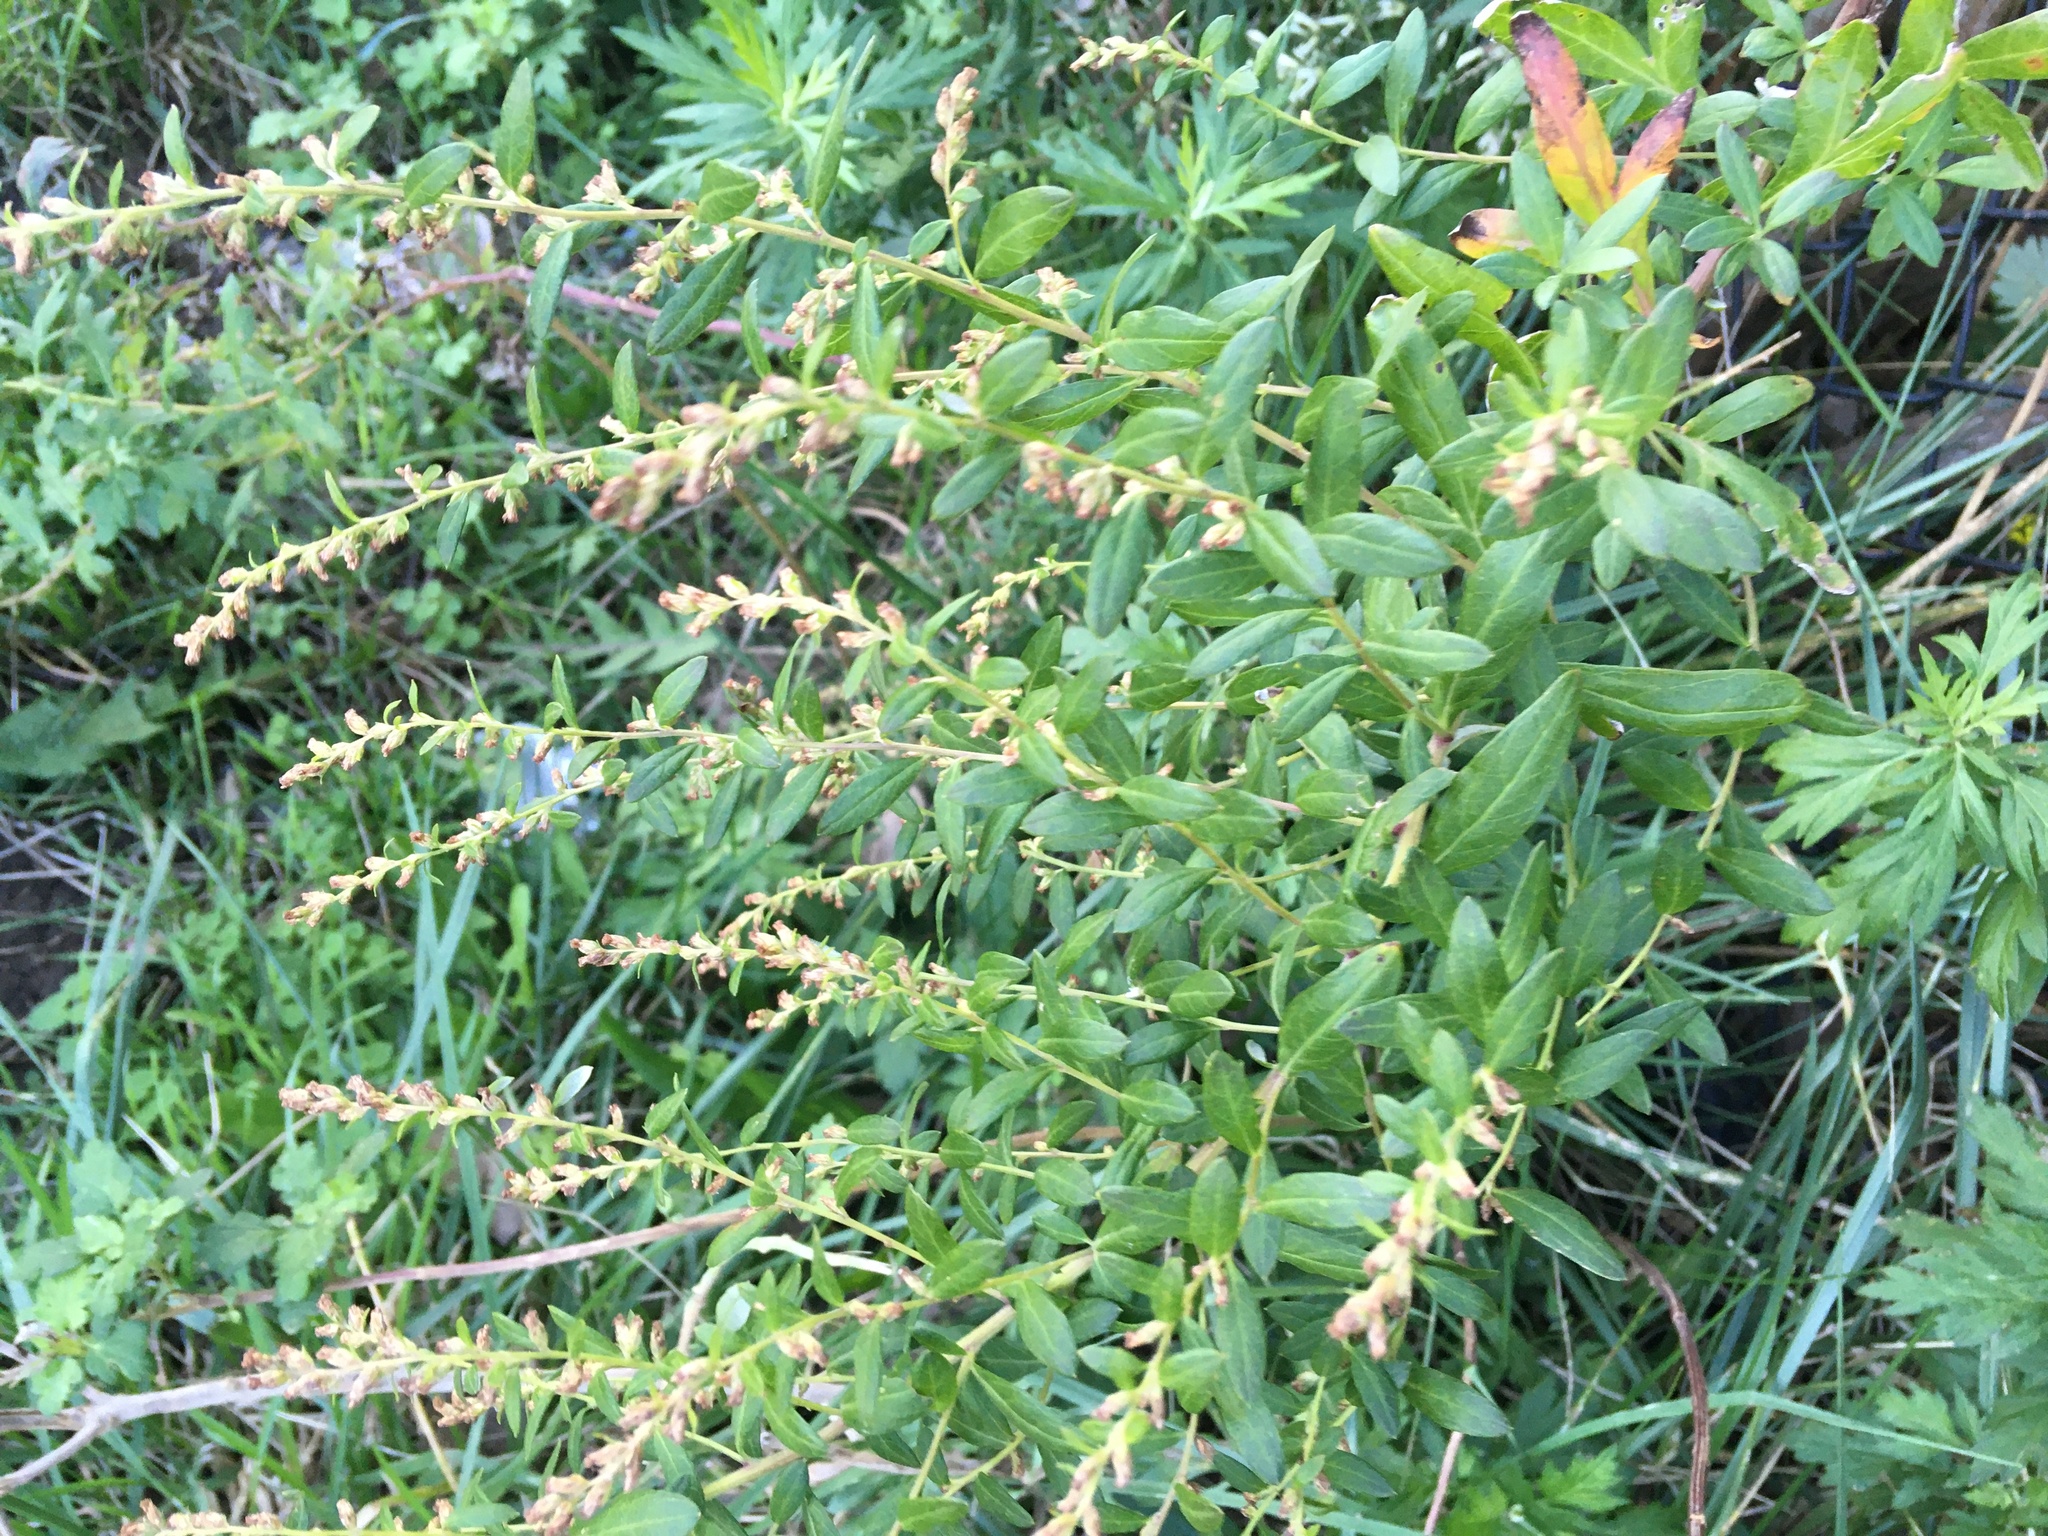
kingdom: Plantae
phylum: Tracheophyta
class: Magnoliopsida
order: Asterales
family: Asteraceae
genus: Artemisia
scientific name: Artemisia vulgaris
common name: Mugwort
